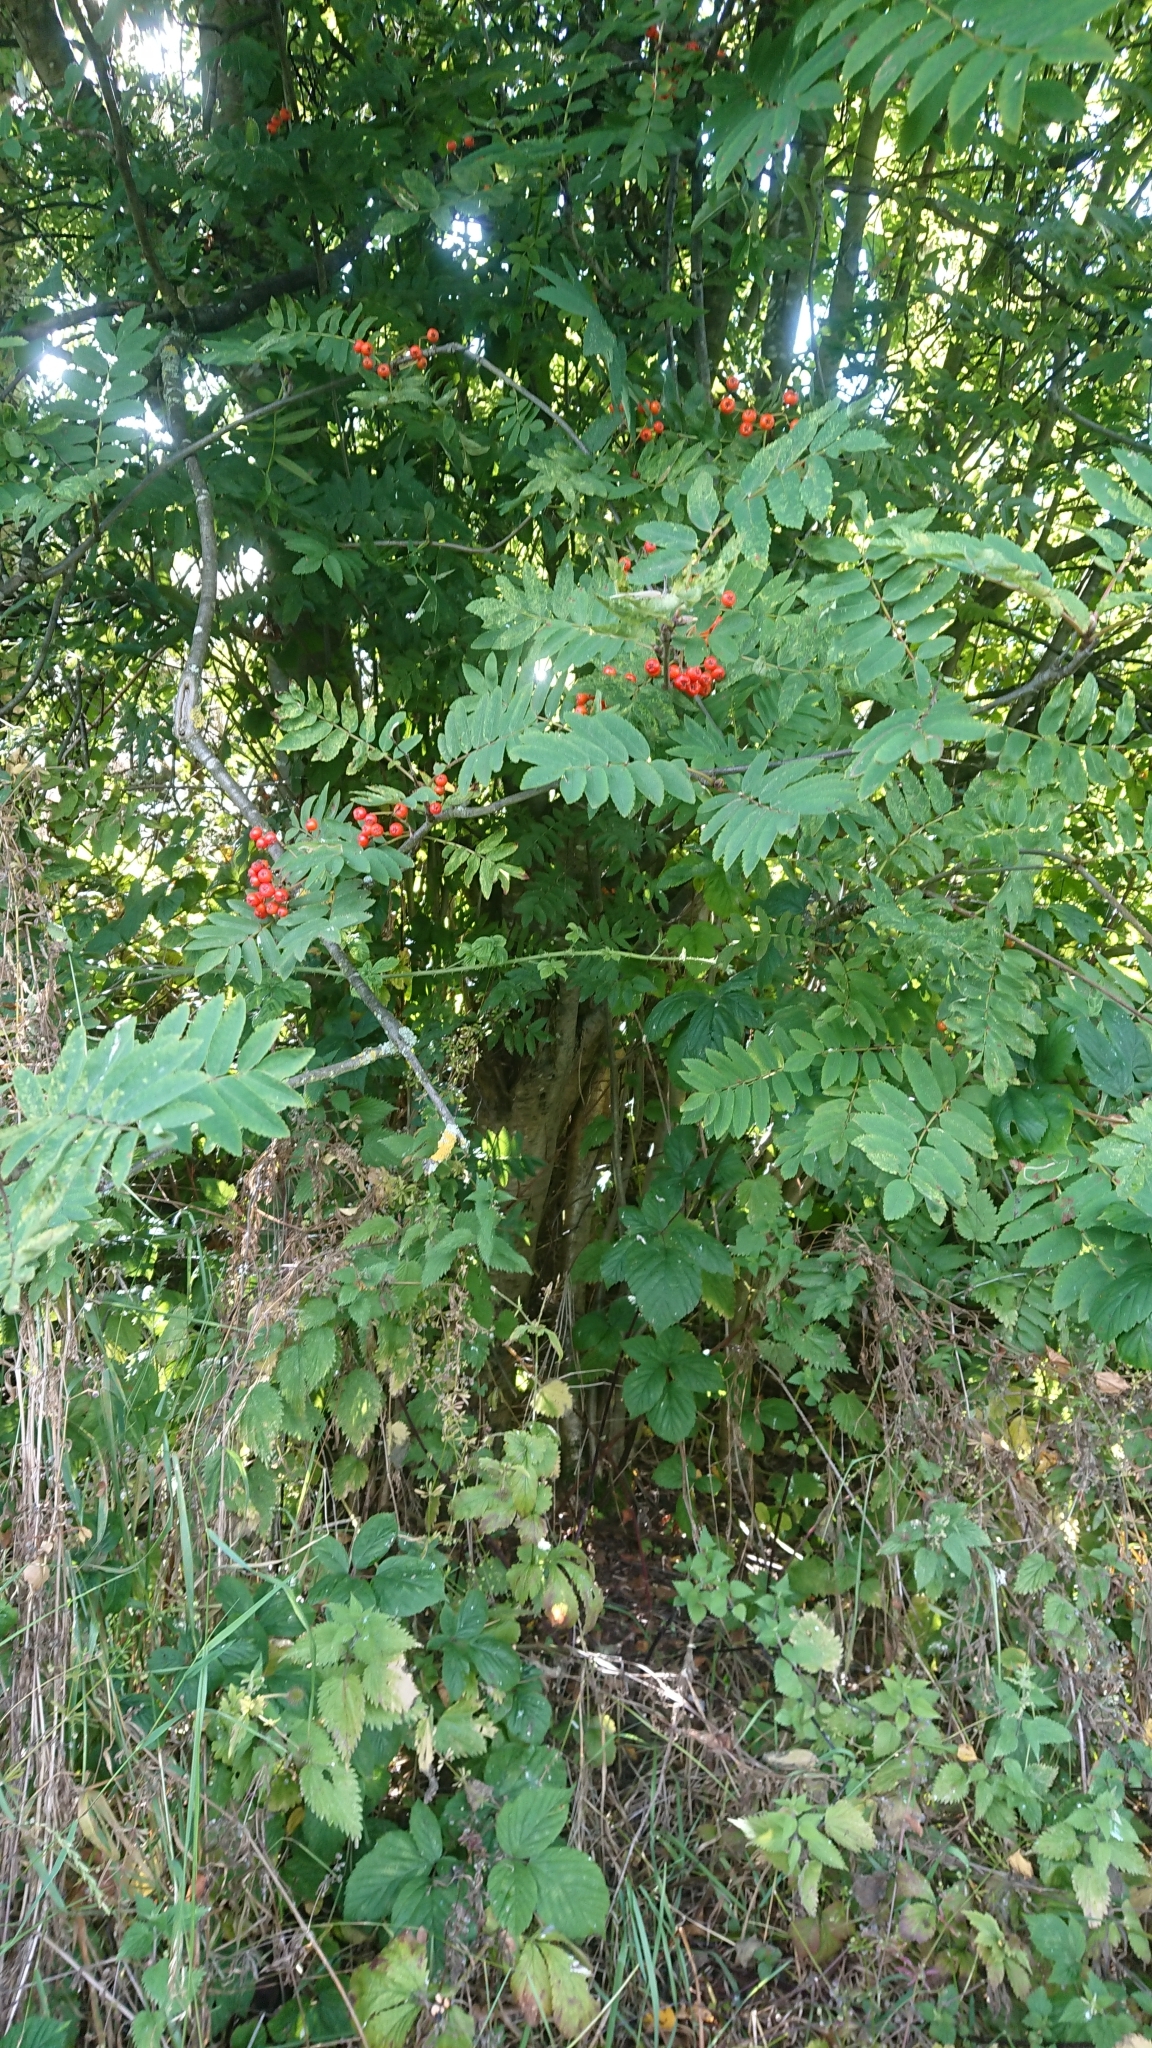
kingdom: Plantae
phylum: Tracheophyta
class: Magnoliopsida
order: Rosales
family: Rosaceae
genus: Sorbus
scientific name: Sorbus aucuparia
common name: Rowan
